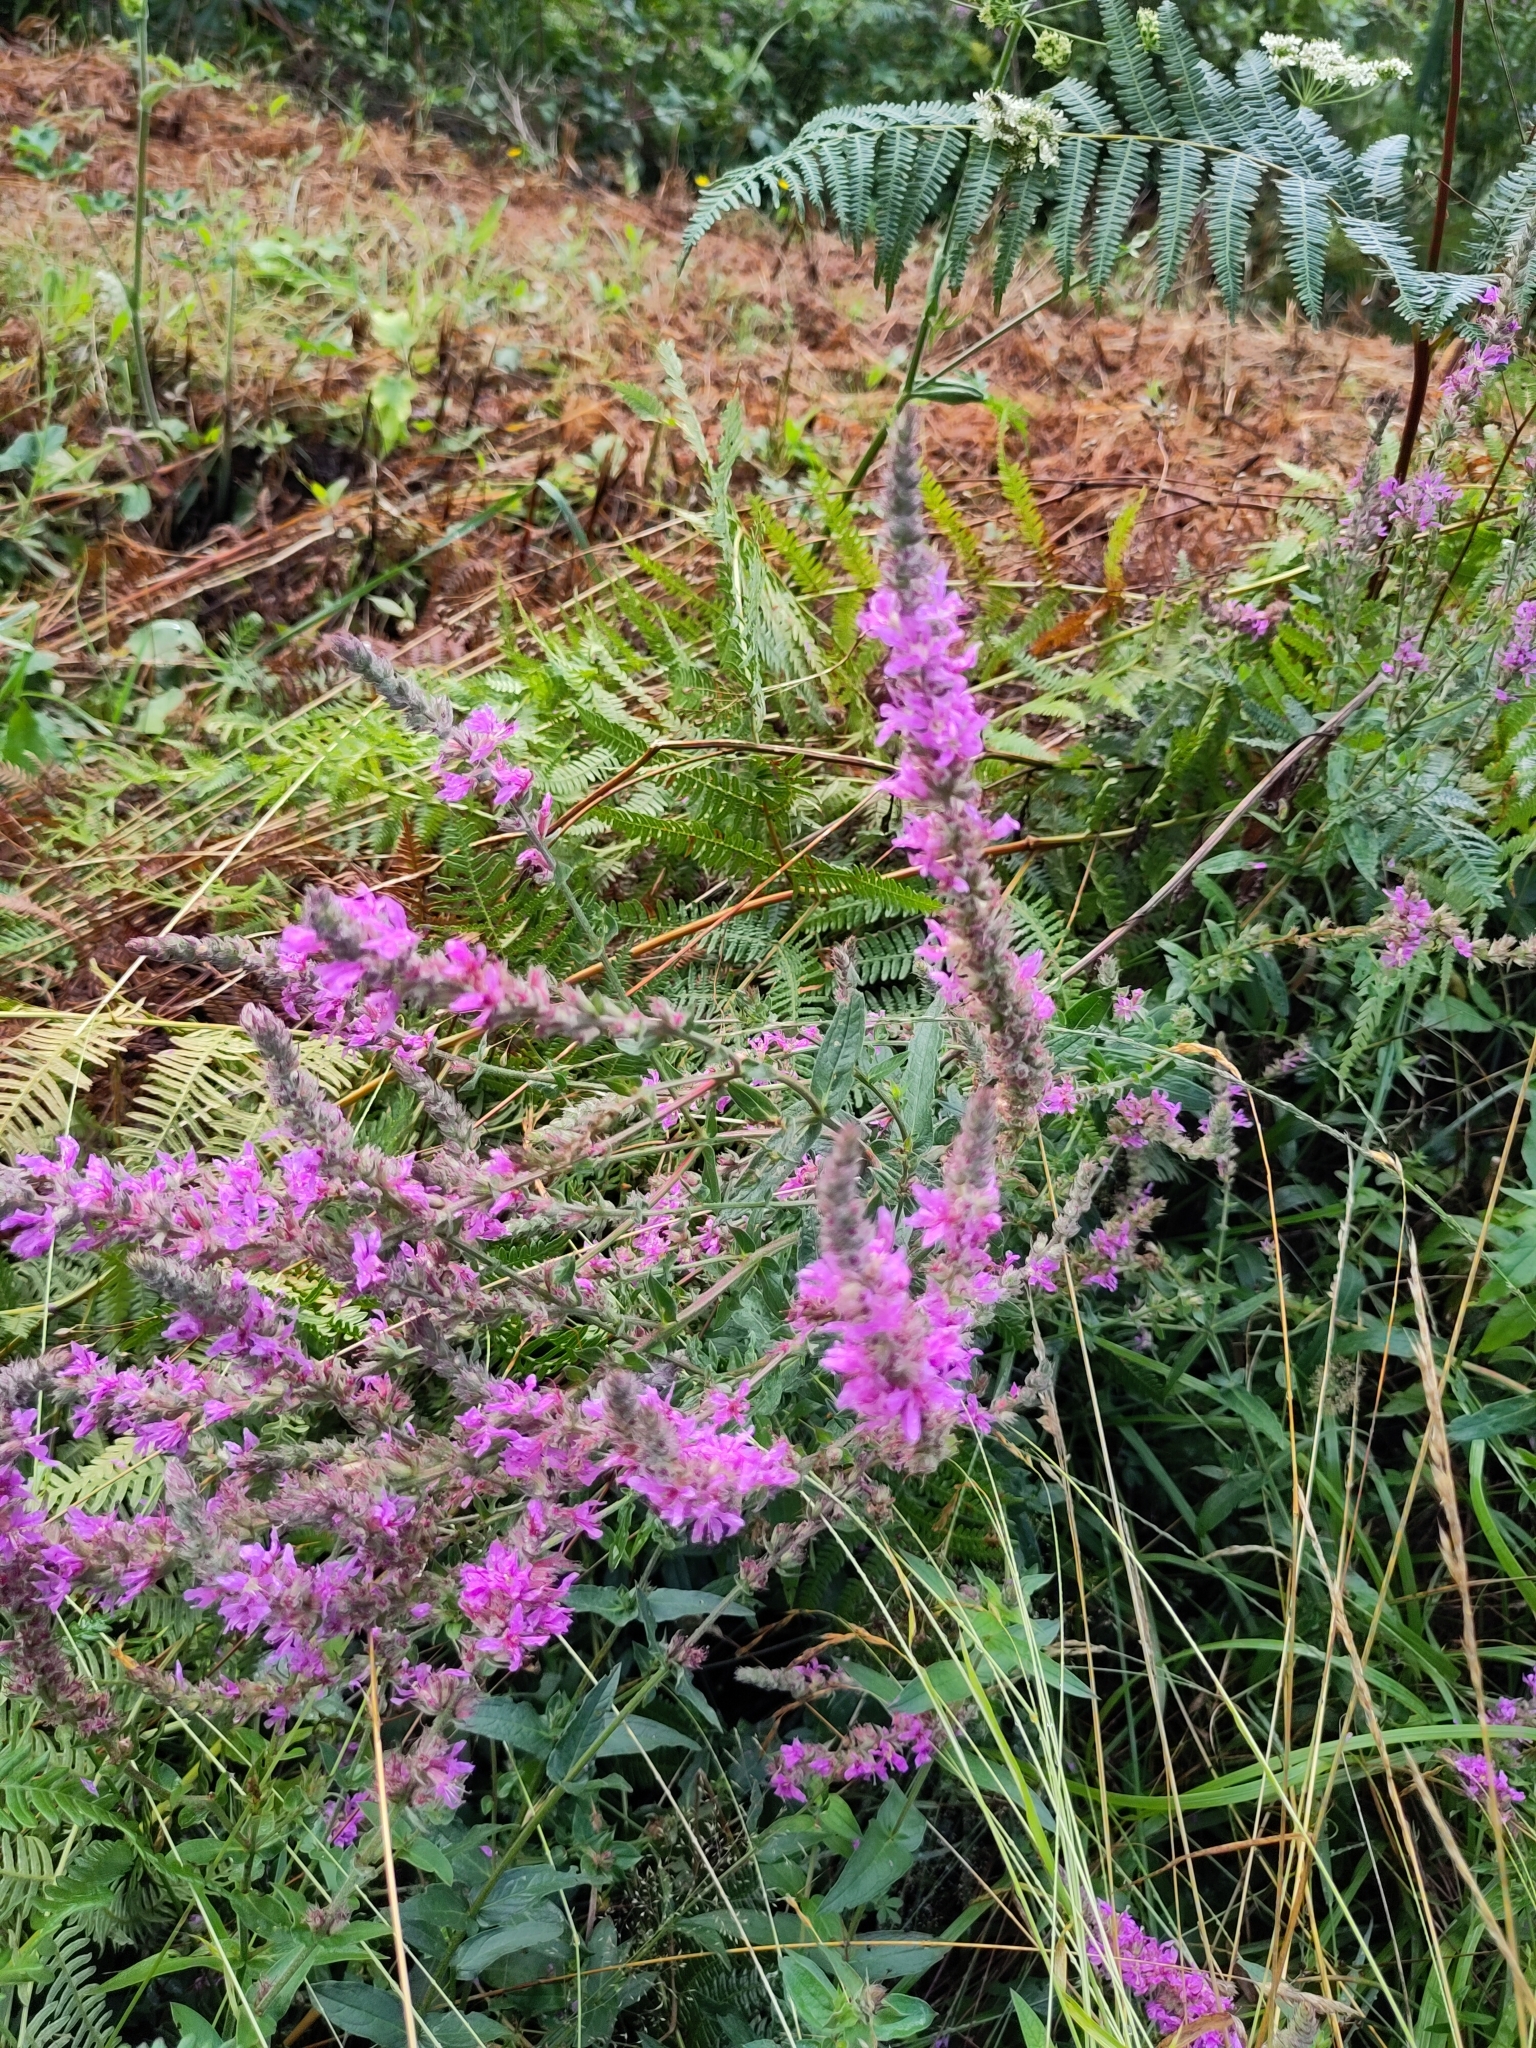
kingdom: Plantae
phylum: Tracheophyta
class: Magnoliopsida
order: Myrtales
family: Lythraceae
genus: Lythrum
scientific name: Lythrum salicaria
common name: Purple loosestrife
